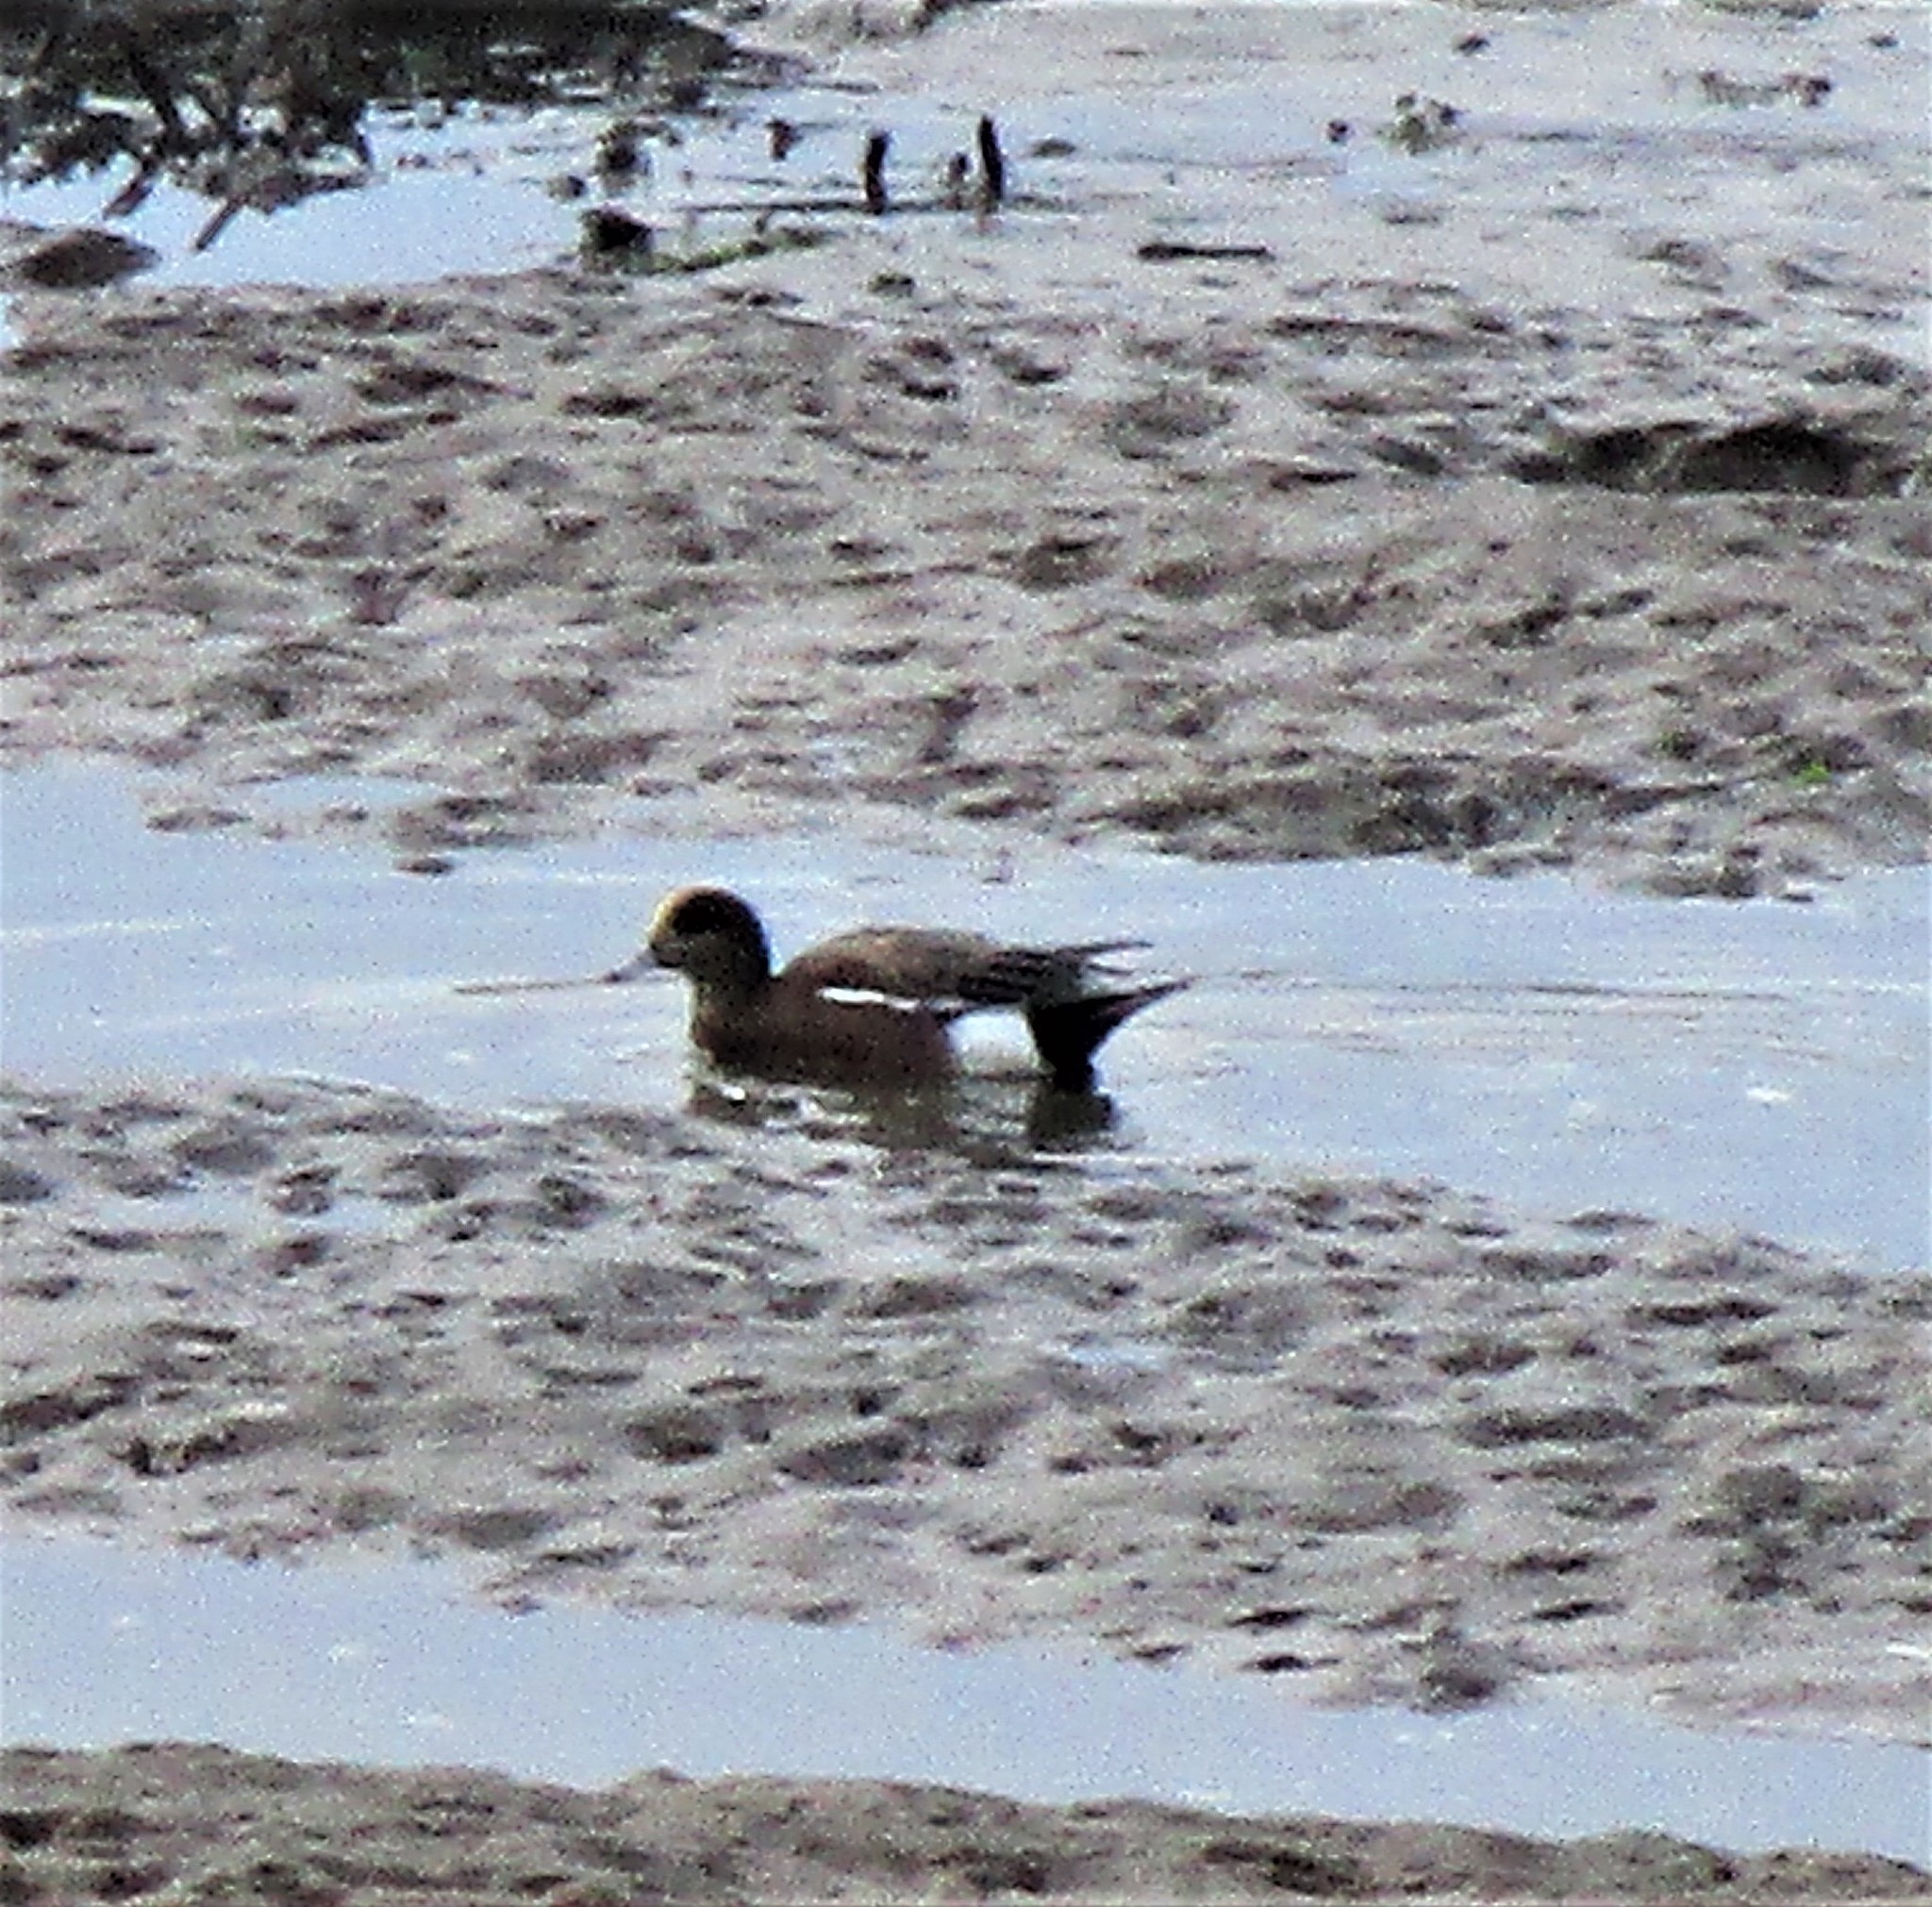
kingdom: Animalia
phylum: Chordata
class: Aves
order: Anseriformes
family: Anatidae
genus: Mareca
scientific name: Mareca americana
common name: American wigeon
